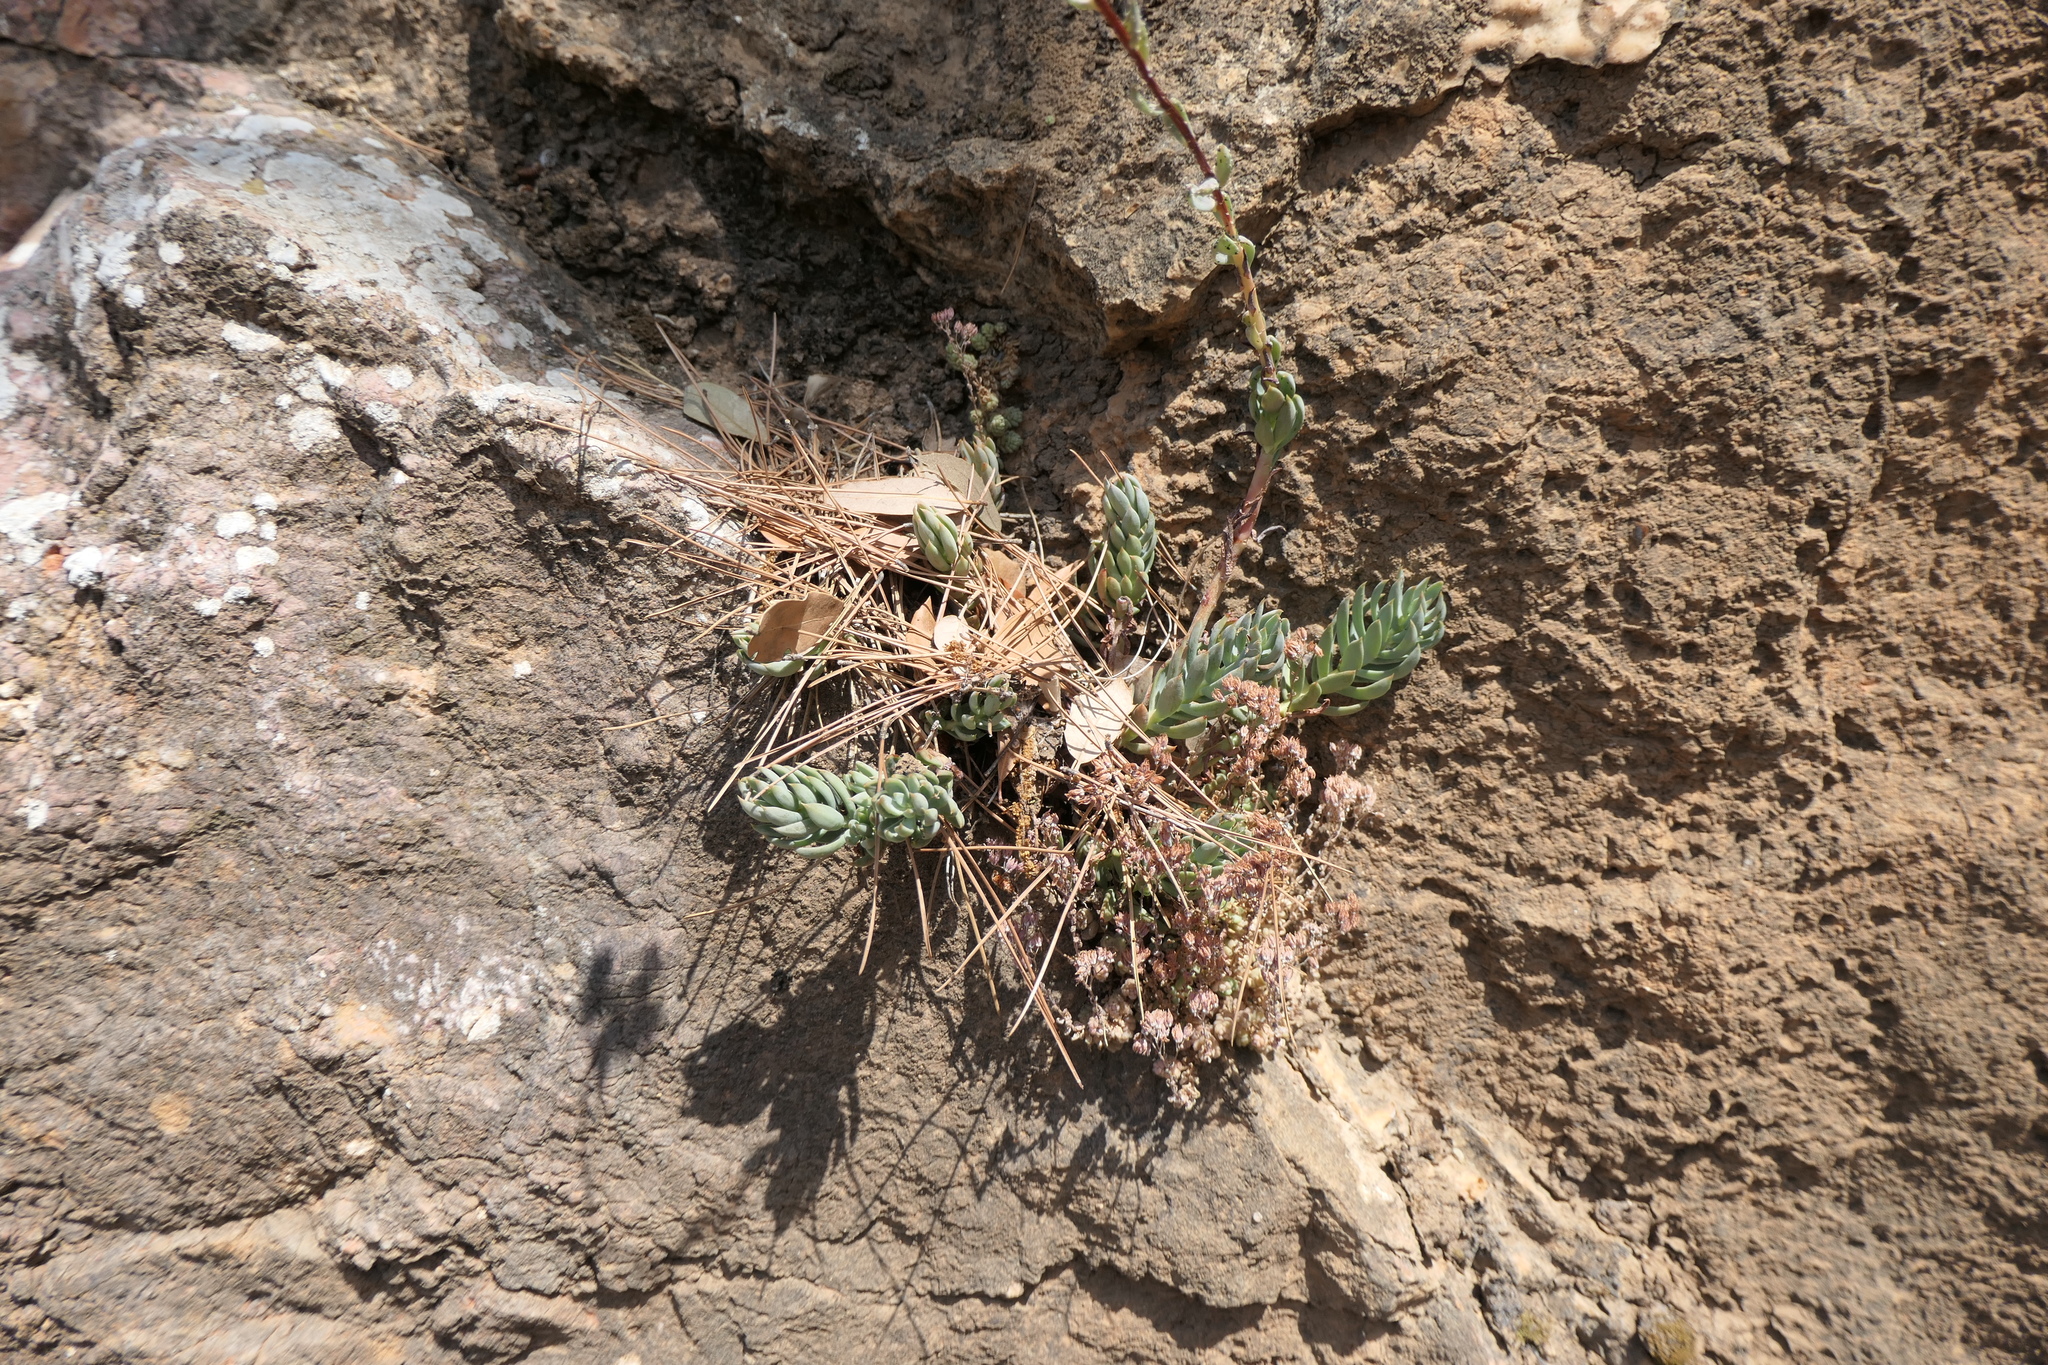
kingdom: Plantae
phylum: Tracheophyta
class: Magnoliopsida
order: Saxifragales
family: Crassulaceae
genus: Petrosedum
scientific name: Petrosedum sediforme
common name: Pale stonecrop
